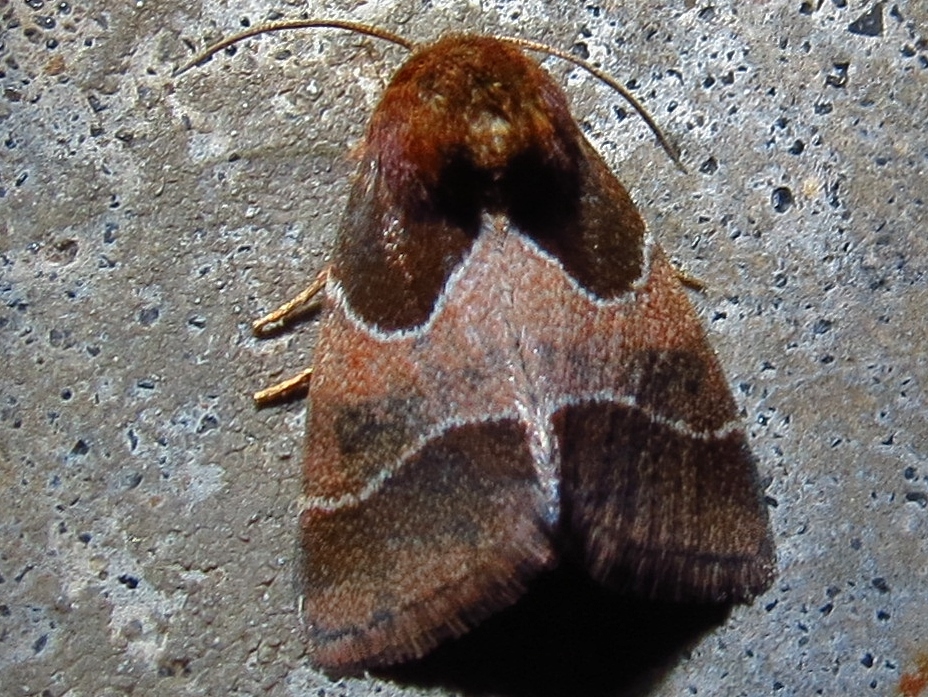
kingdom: Animalia
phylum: Arthropoda
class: Insecta
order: Lepidoptera
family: Noctuidae
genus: Schinia
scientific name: Schinia arcigera
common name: Arcigera flower moth
